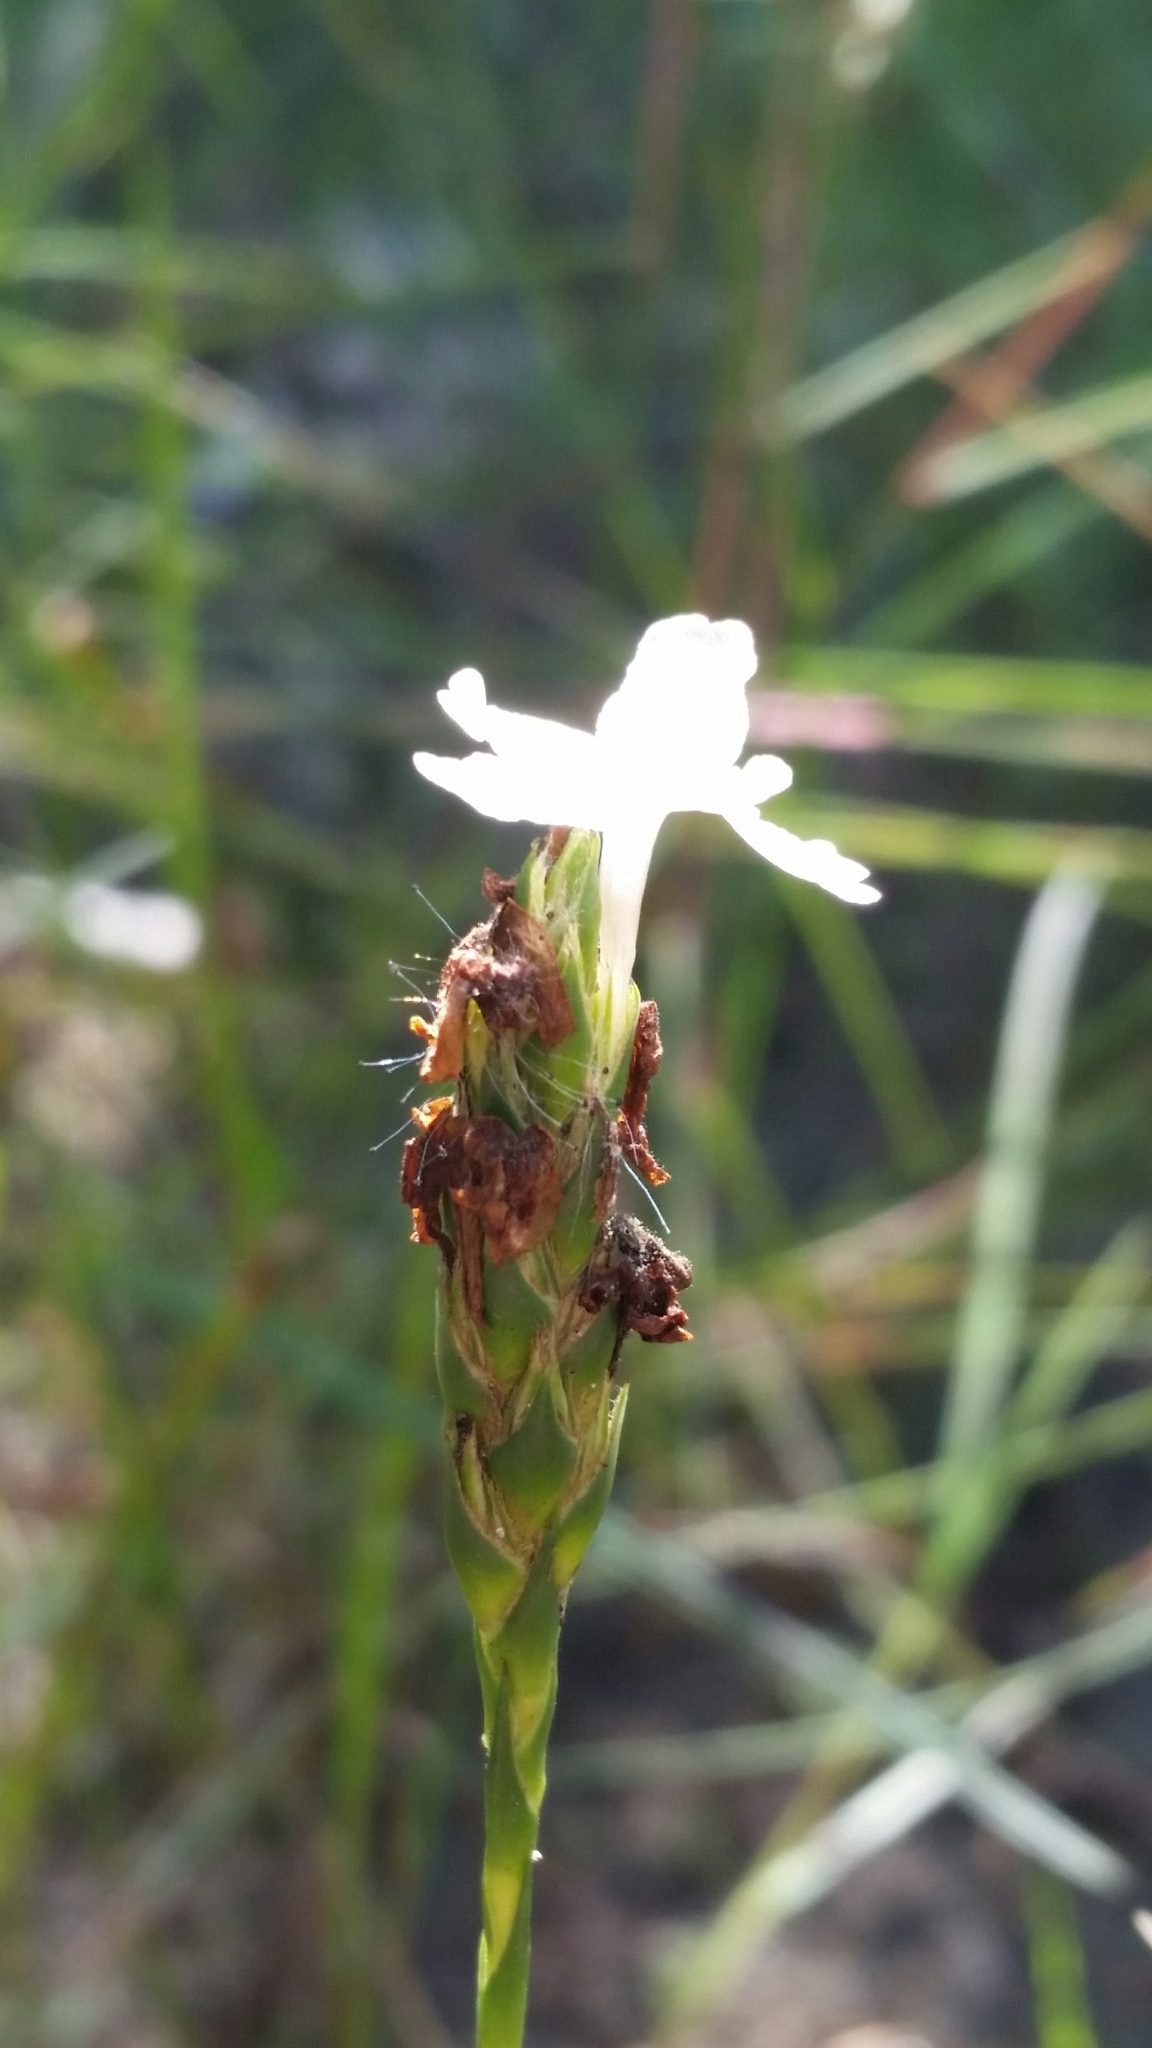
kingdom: Plantae
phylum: Tracheophyta
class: Magnoliopsida
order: Lamiales
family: Acanthaceae
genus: Elytraria
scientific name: Elytraria caroliniensis
